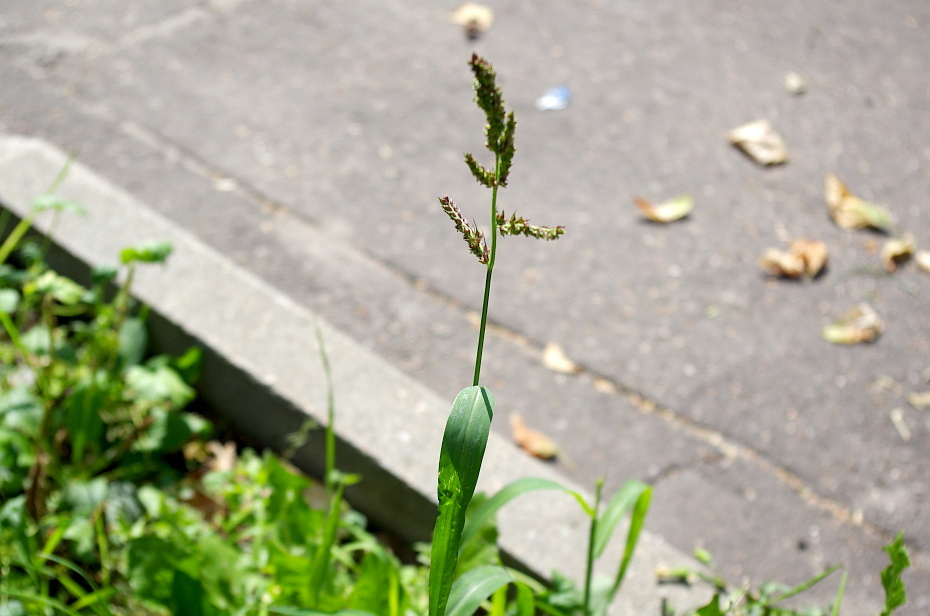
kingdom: Plantae
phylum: Tracheophyta
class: Liliopsida
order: Poales
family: Poaceae
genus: Echinochloa
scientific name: Echinochloa crus-galli
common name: Cockspur
